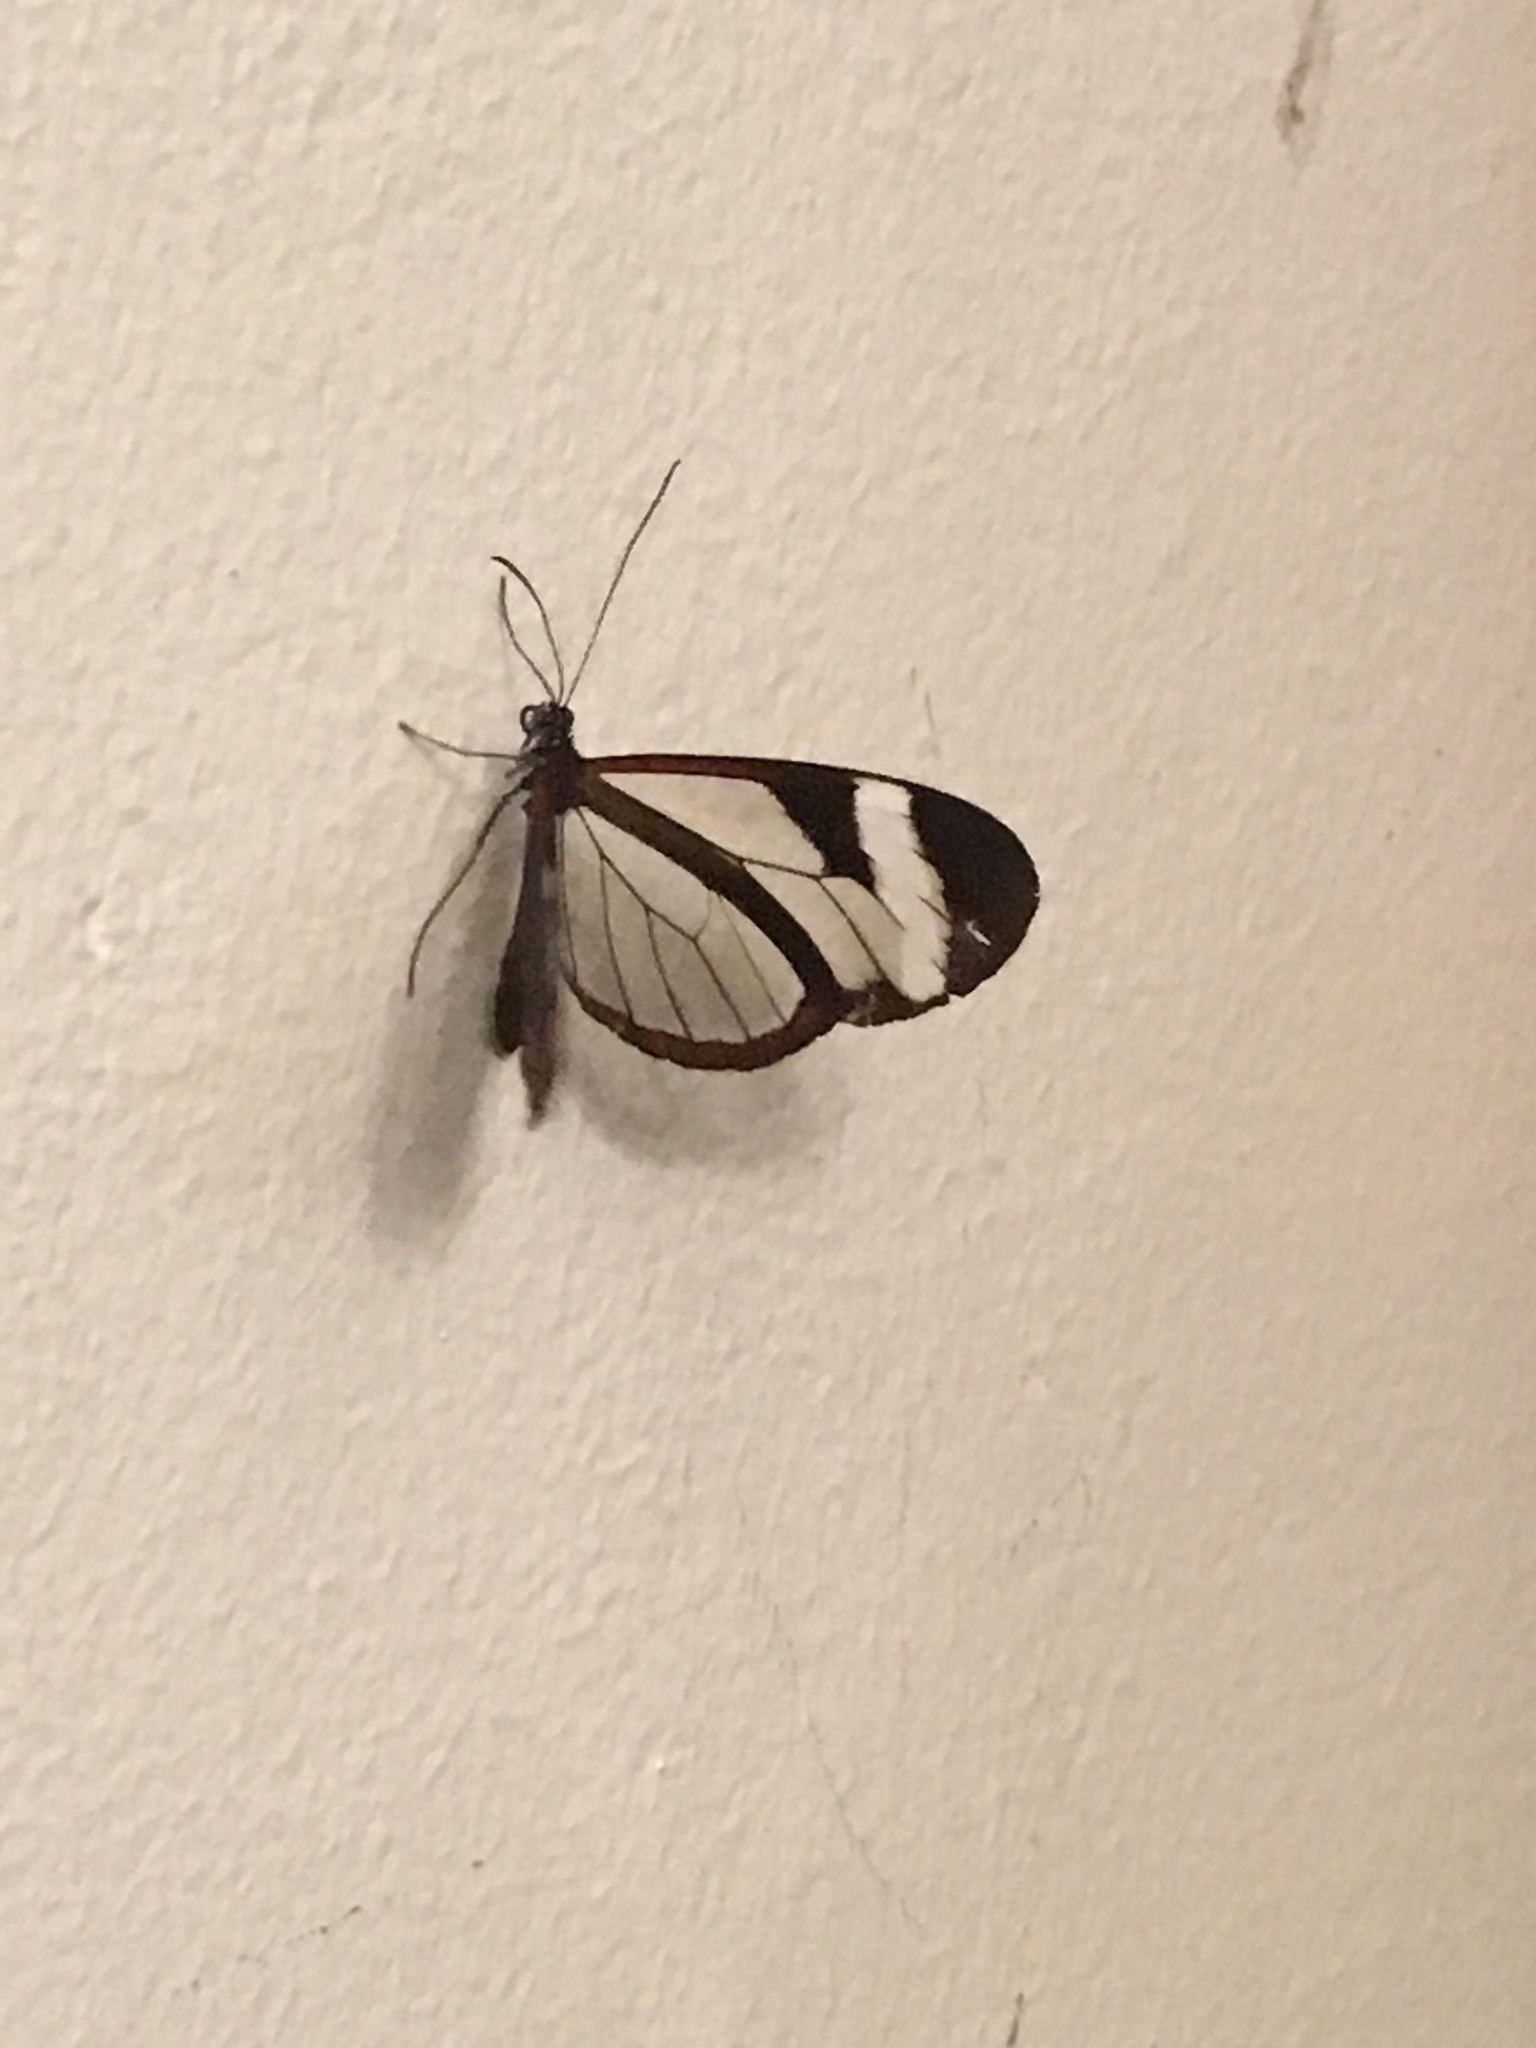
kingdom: Animalia
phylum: Arthropoda
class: Insecta
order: Lepidoptera
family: Nymphalidae
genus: Oleria
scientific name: Oleria paula
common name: Paula's clearwing
